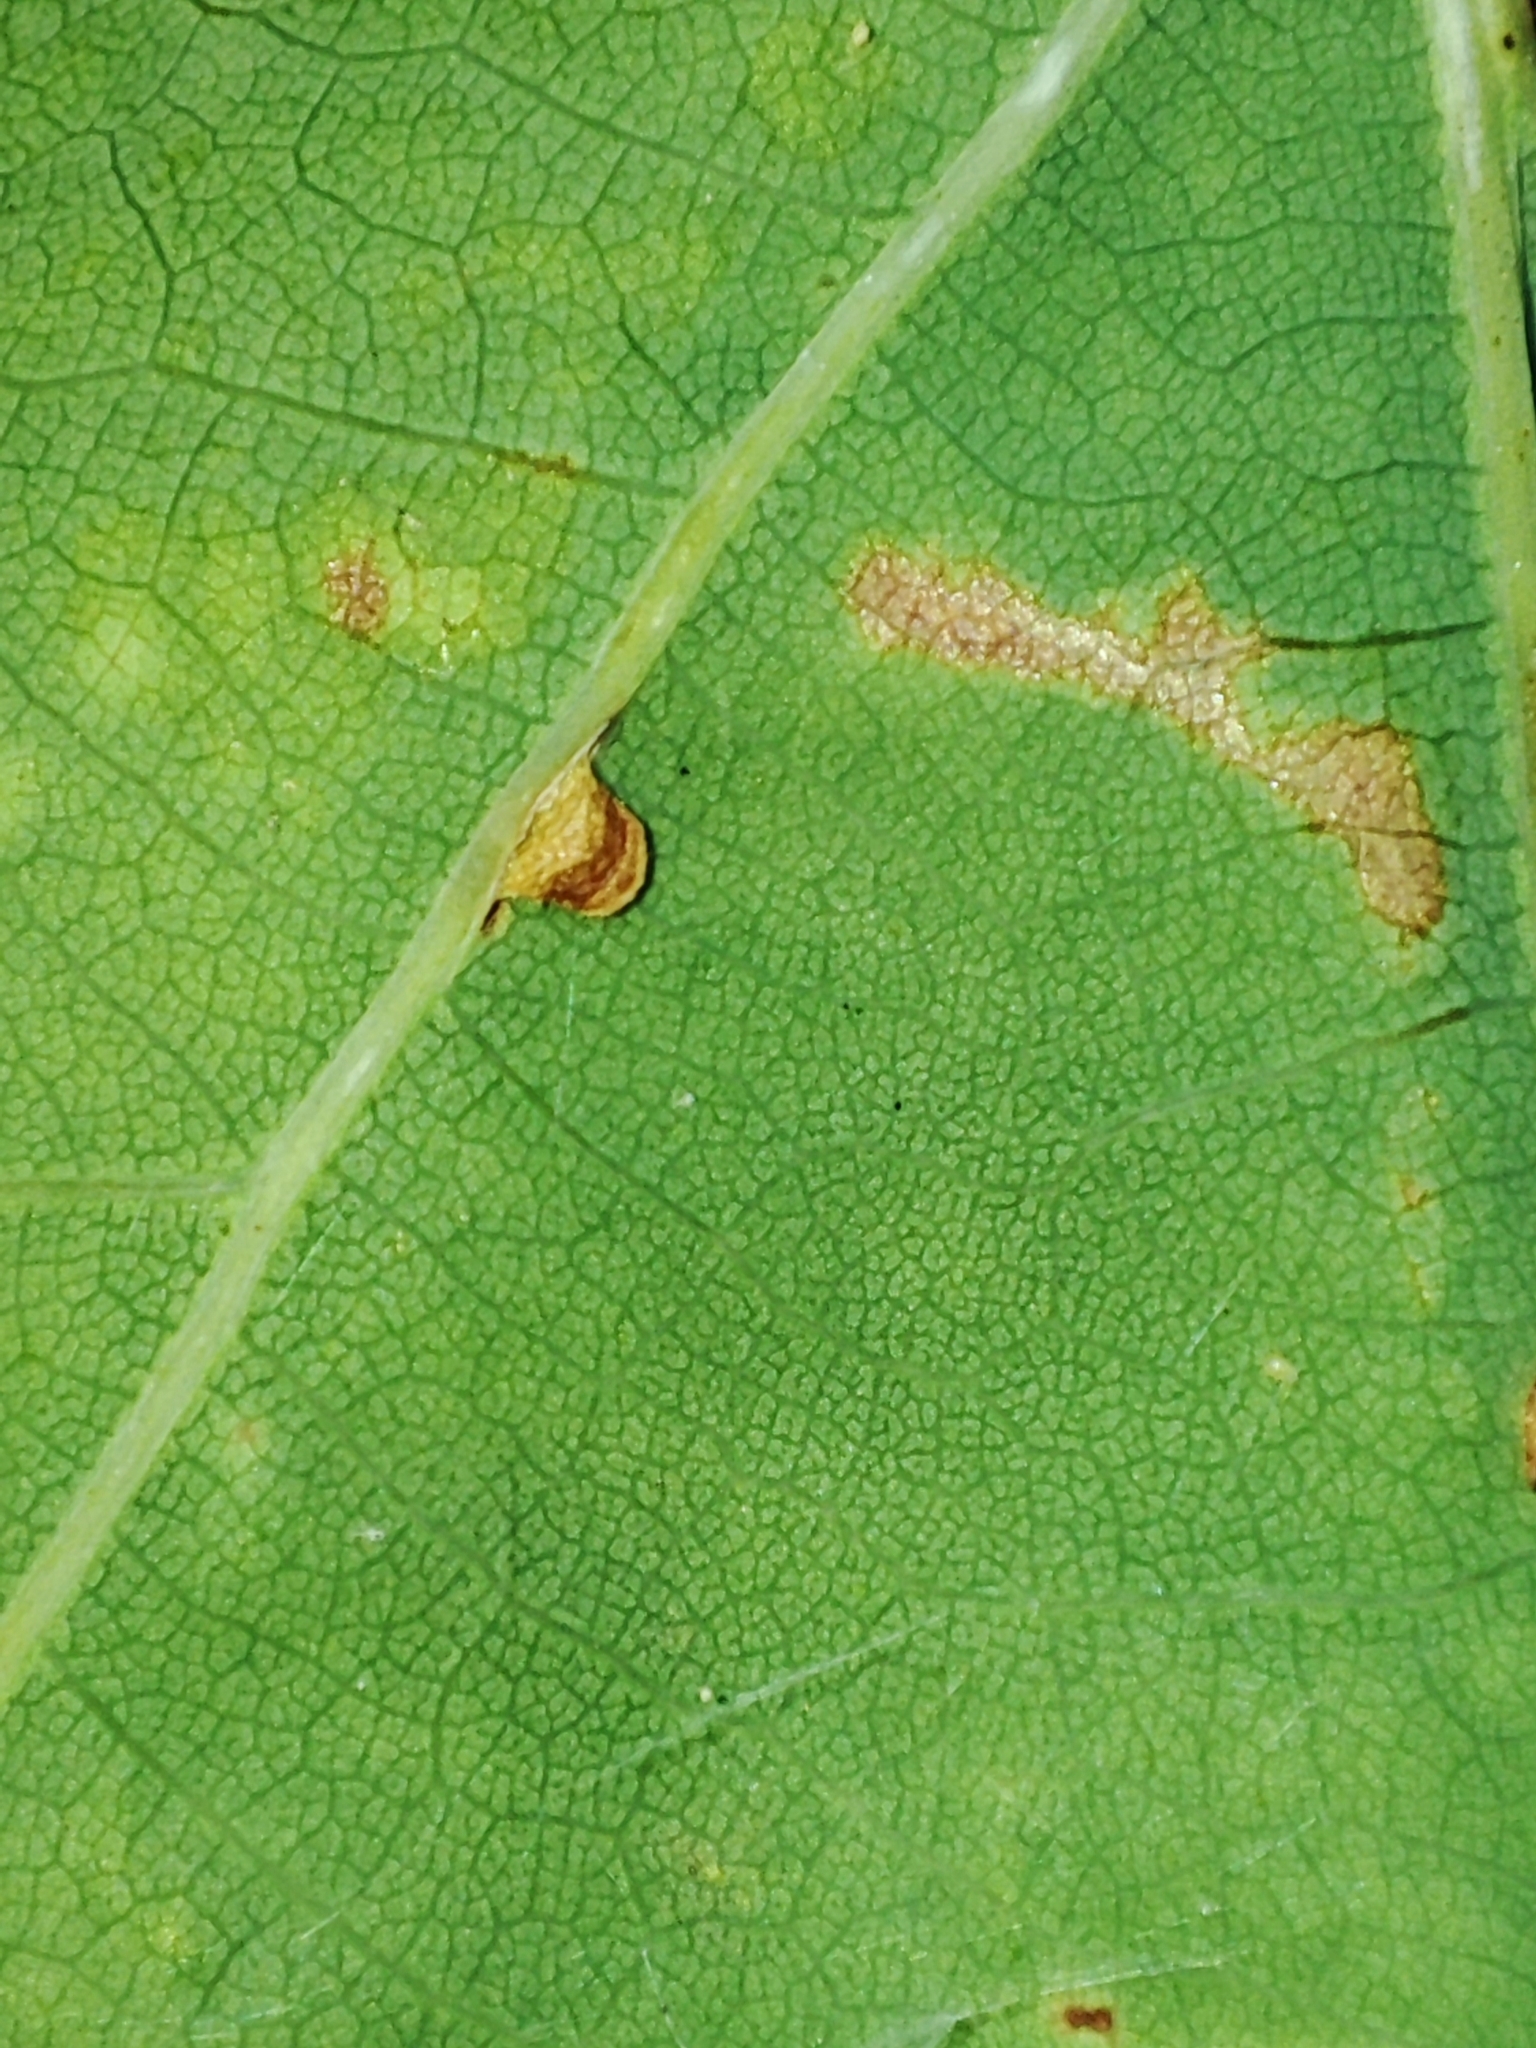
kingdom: Animalia
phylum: Arthropoda
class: Insecta
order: Hymenoptera
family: Cynipidae
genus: Neuroterus
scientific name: Neuroterus anthracinus
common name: Oyster gall
